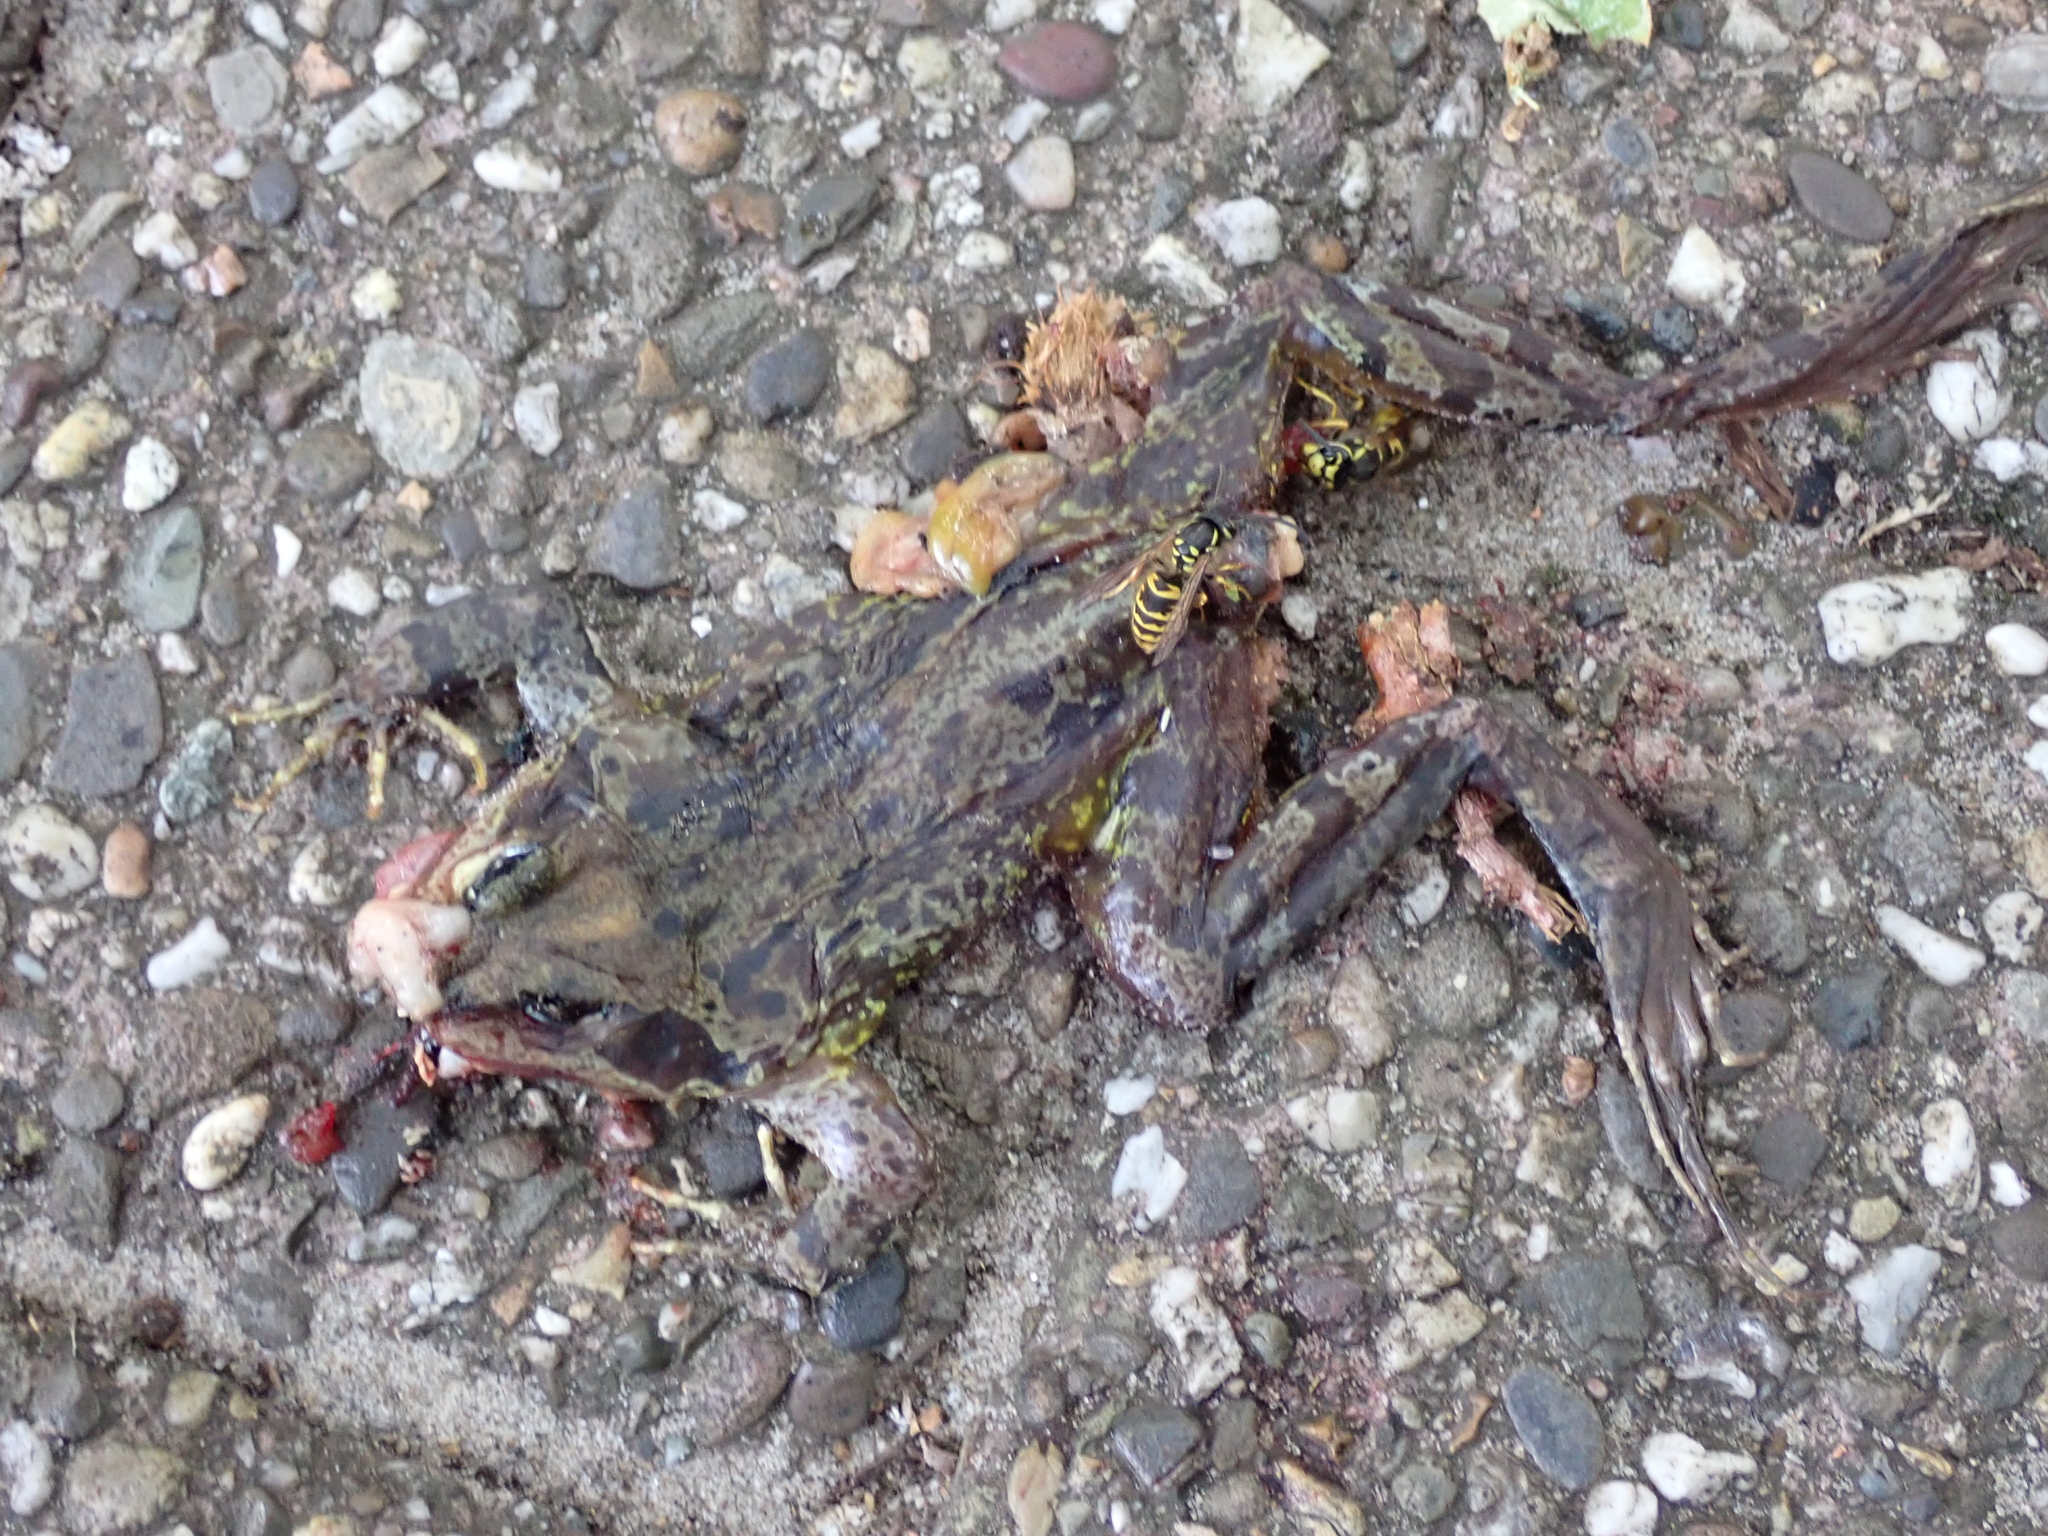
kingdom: Animalia
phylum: Chordata
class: Amphibia
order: Anura
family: Ranidae
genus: Rana
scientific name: Rana temporaria
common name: Common frog
